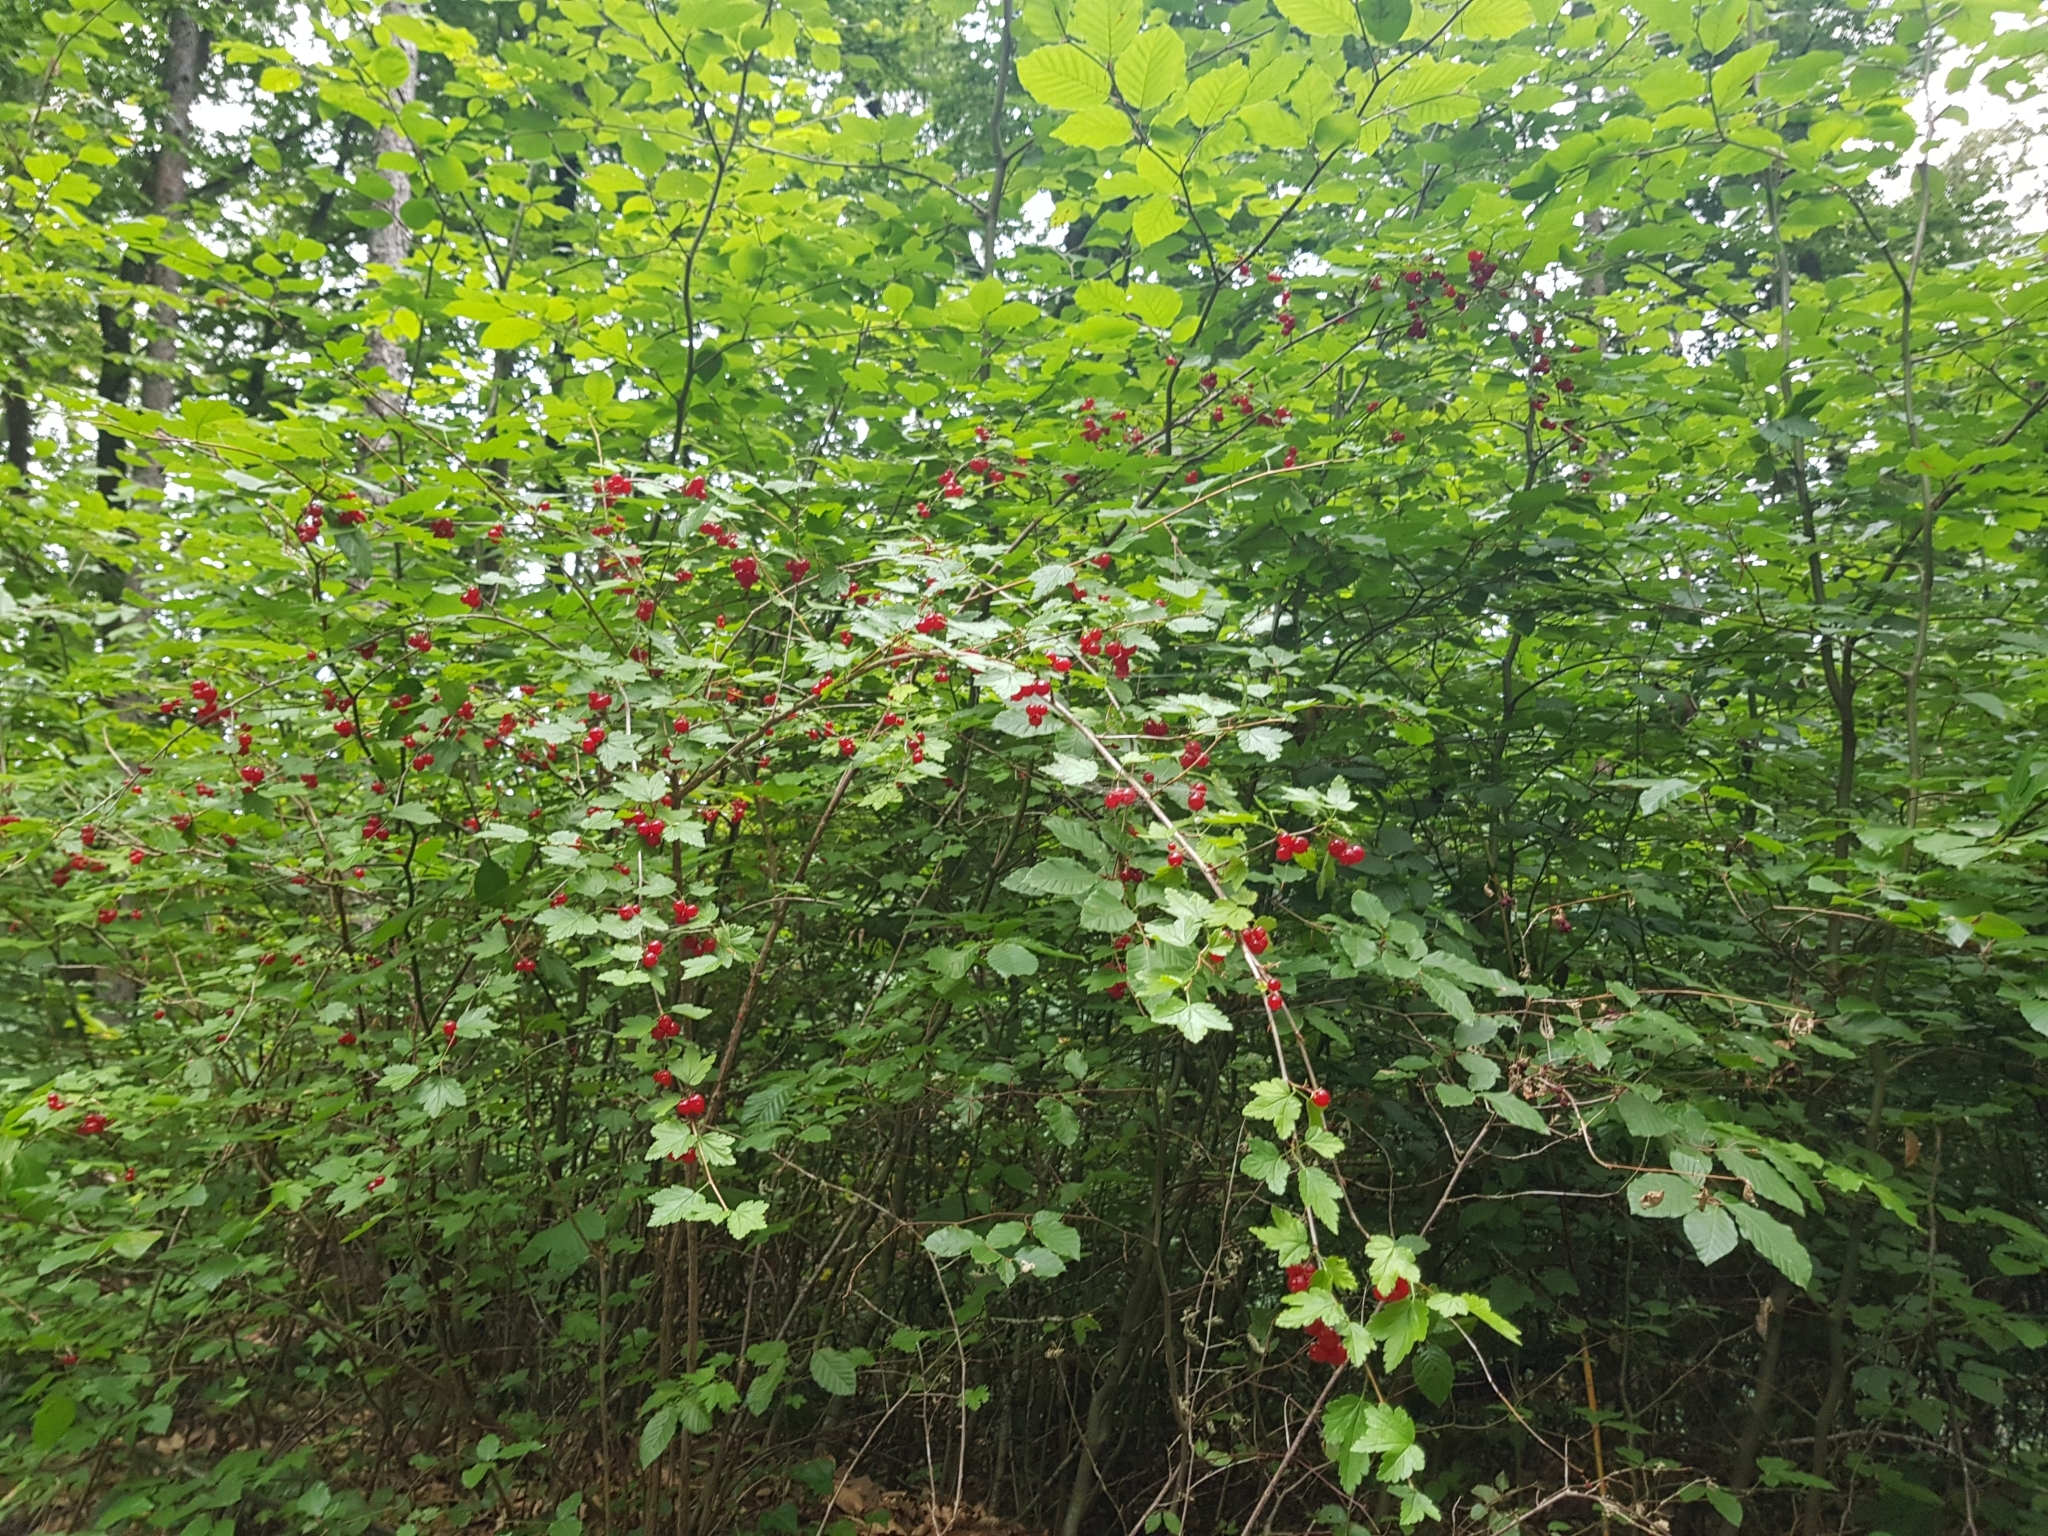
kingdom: Plantae
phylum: Tracheophyta
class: Magnoliopsida
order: Saxifragales
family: Grossulariaceae
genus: Ribes
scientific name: Ribes alpinum
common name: Alpine currant
